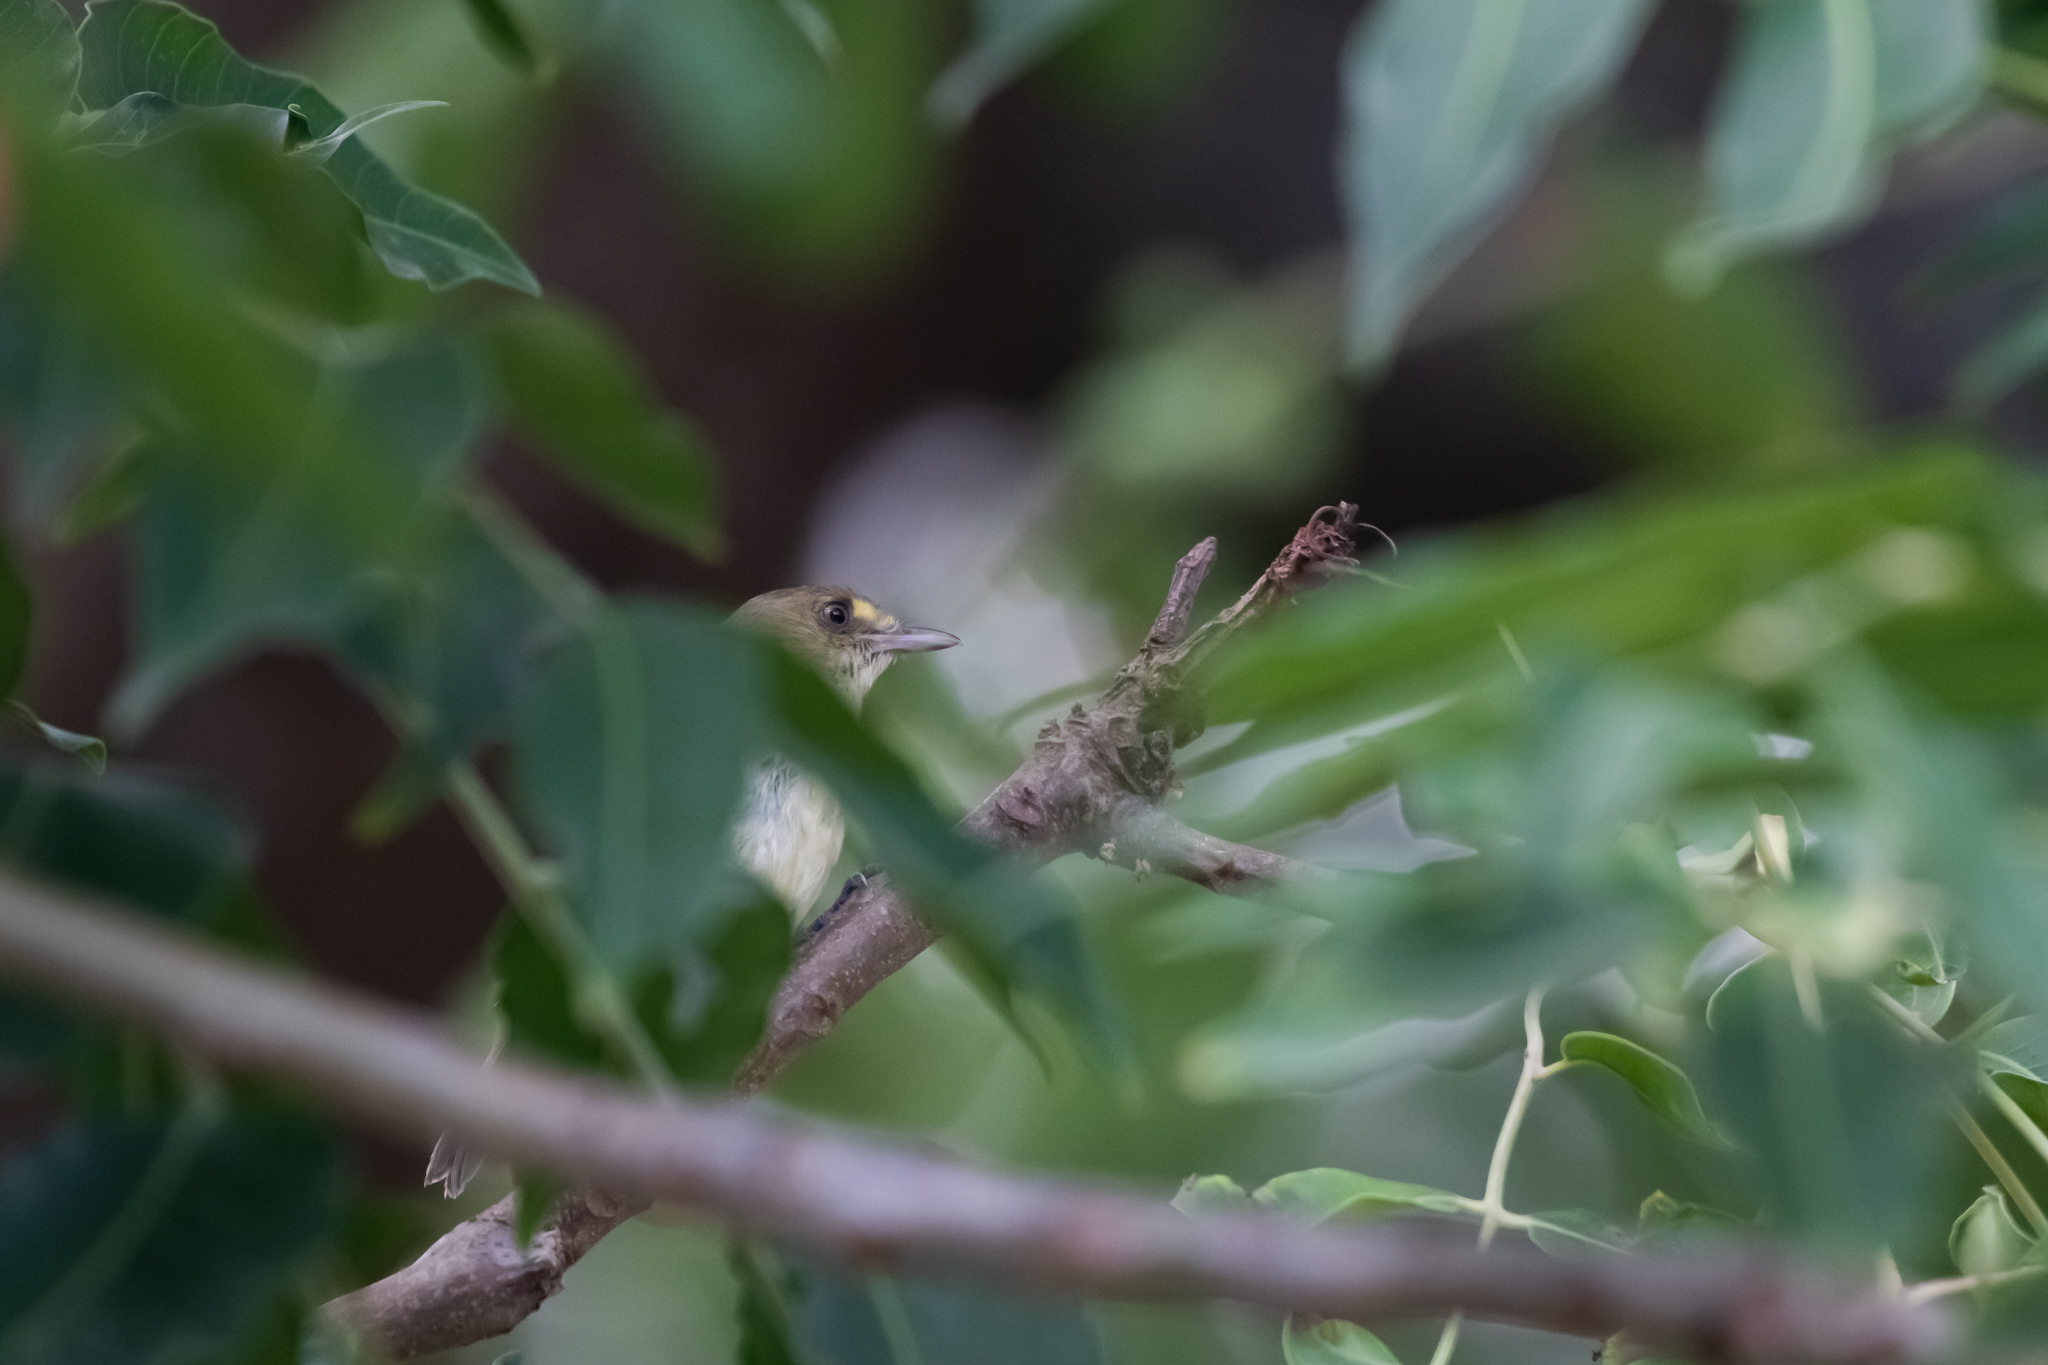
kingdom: Animalia
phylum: Chordata
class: Aves
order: Passeriformes
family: Vireonidae
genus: Vireo
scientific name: Vireo pallens
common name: Mangrove vireo
